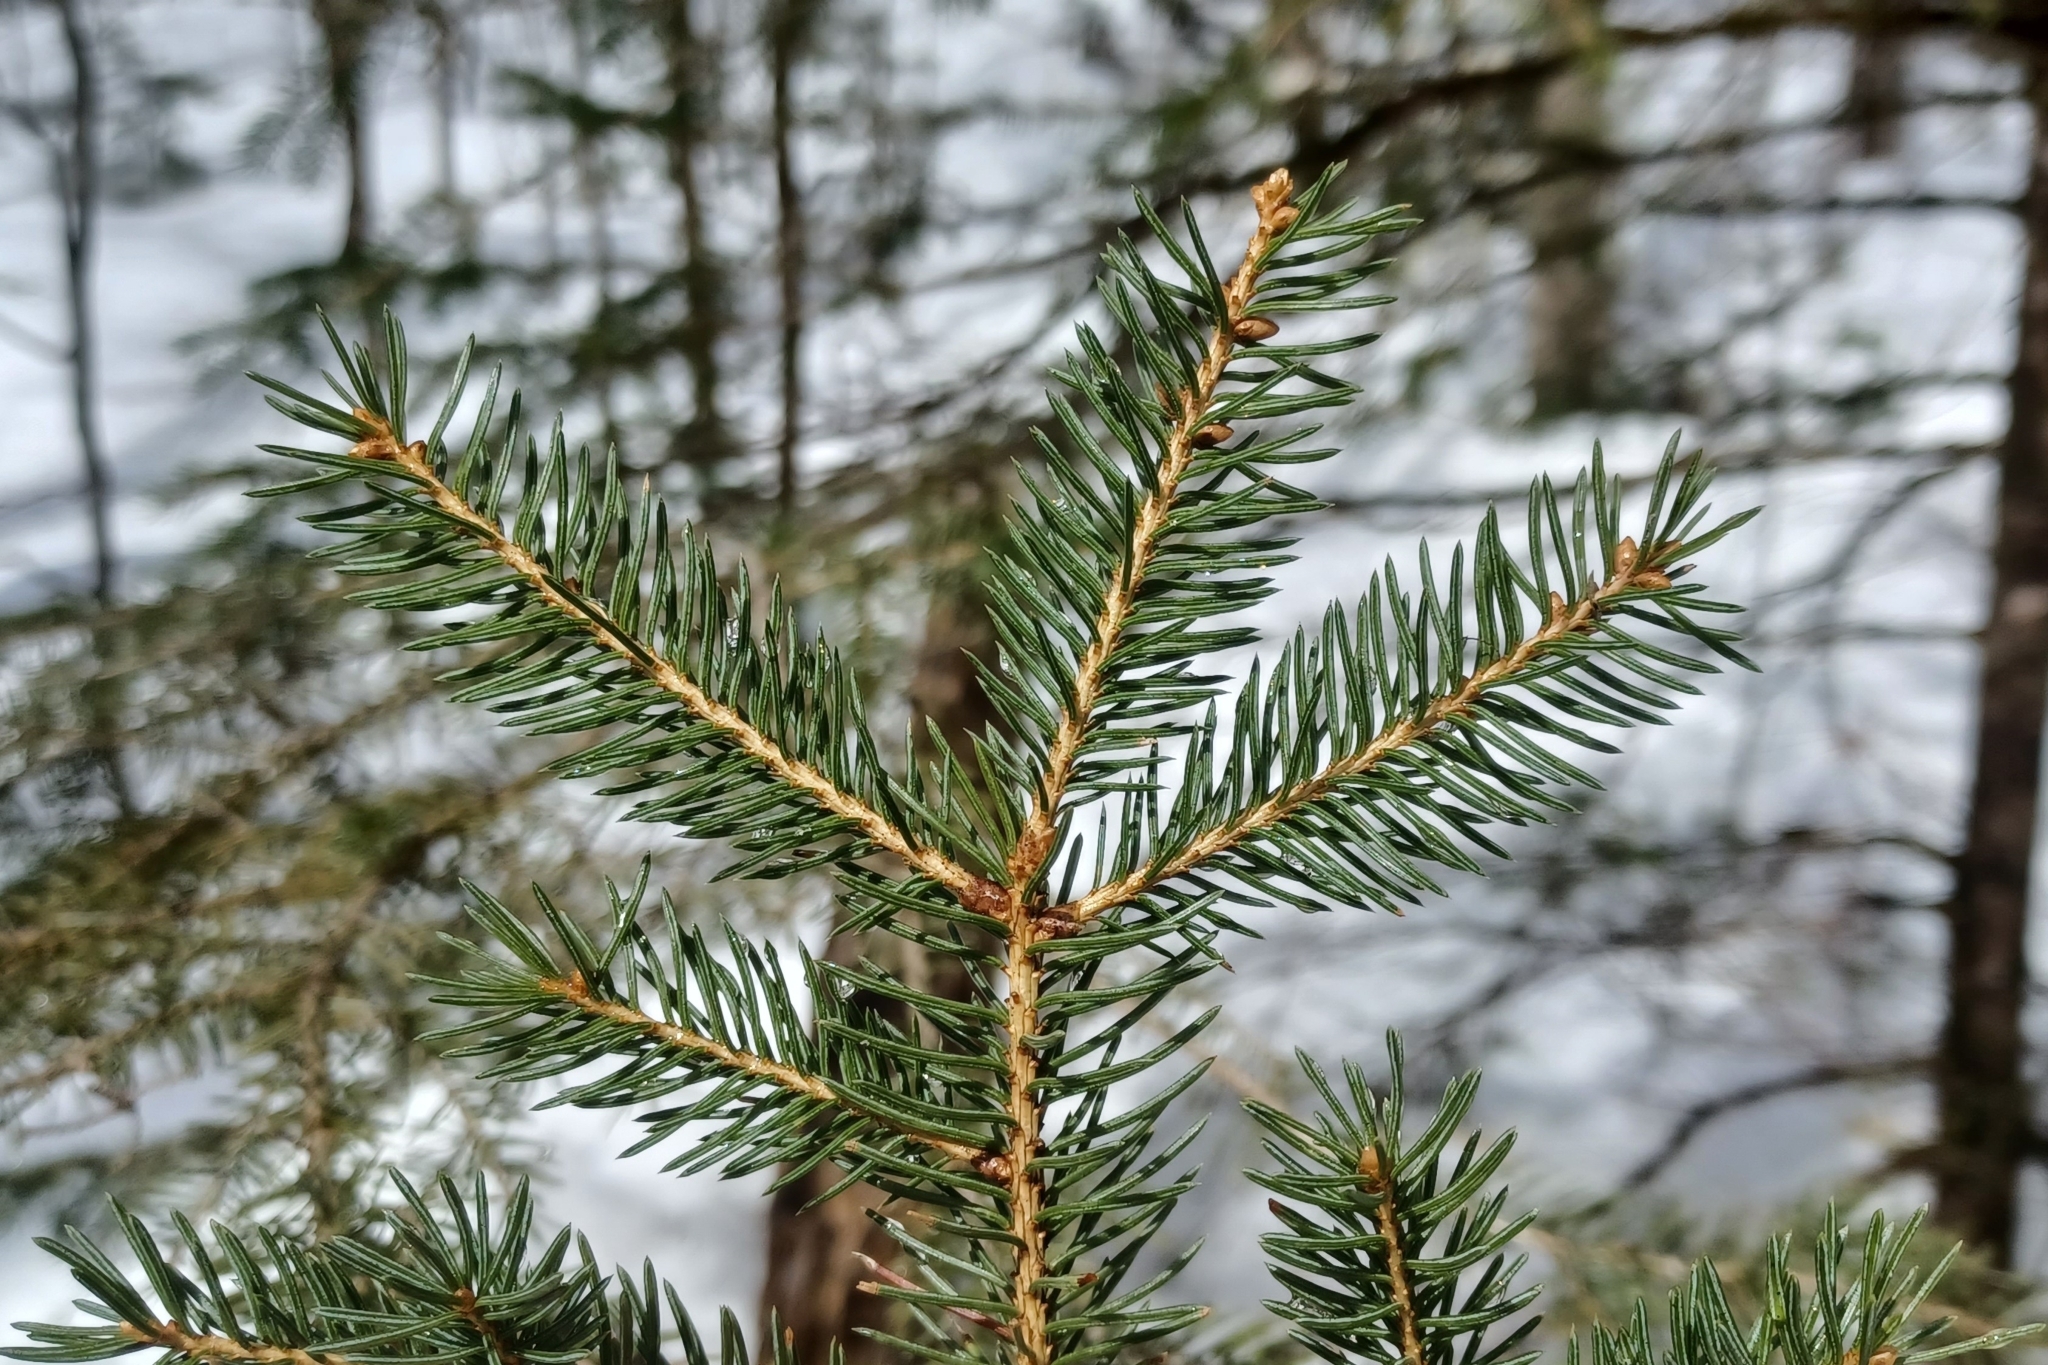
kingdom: Plantae
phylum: Tracheophyta
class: Pinopsida
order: Pinales
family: Pinaceae
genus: Picea
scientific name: Picea glauca
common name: White spruce
